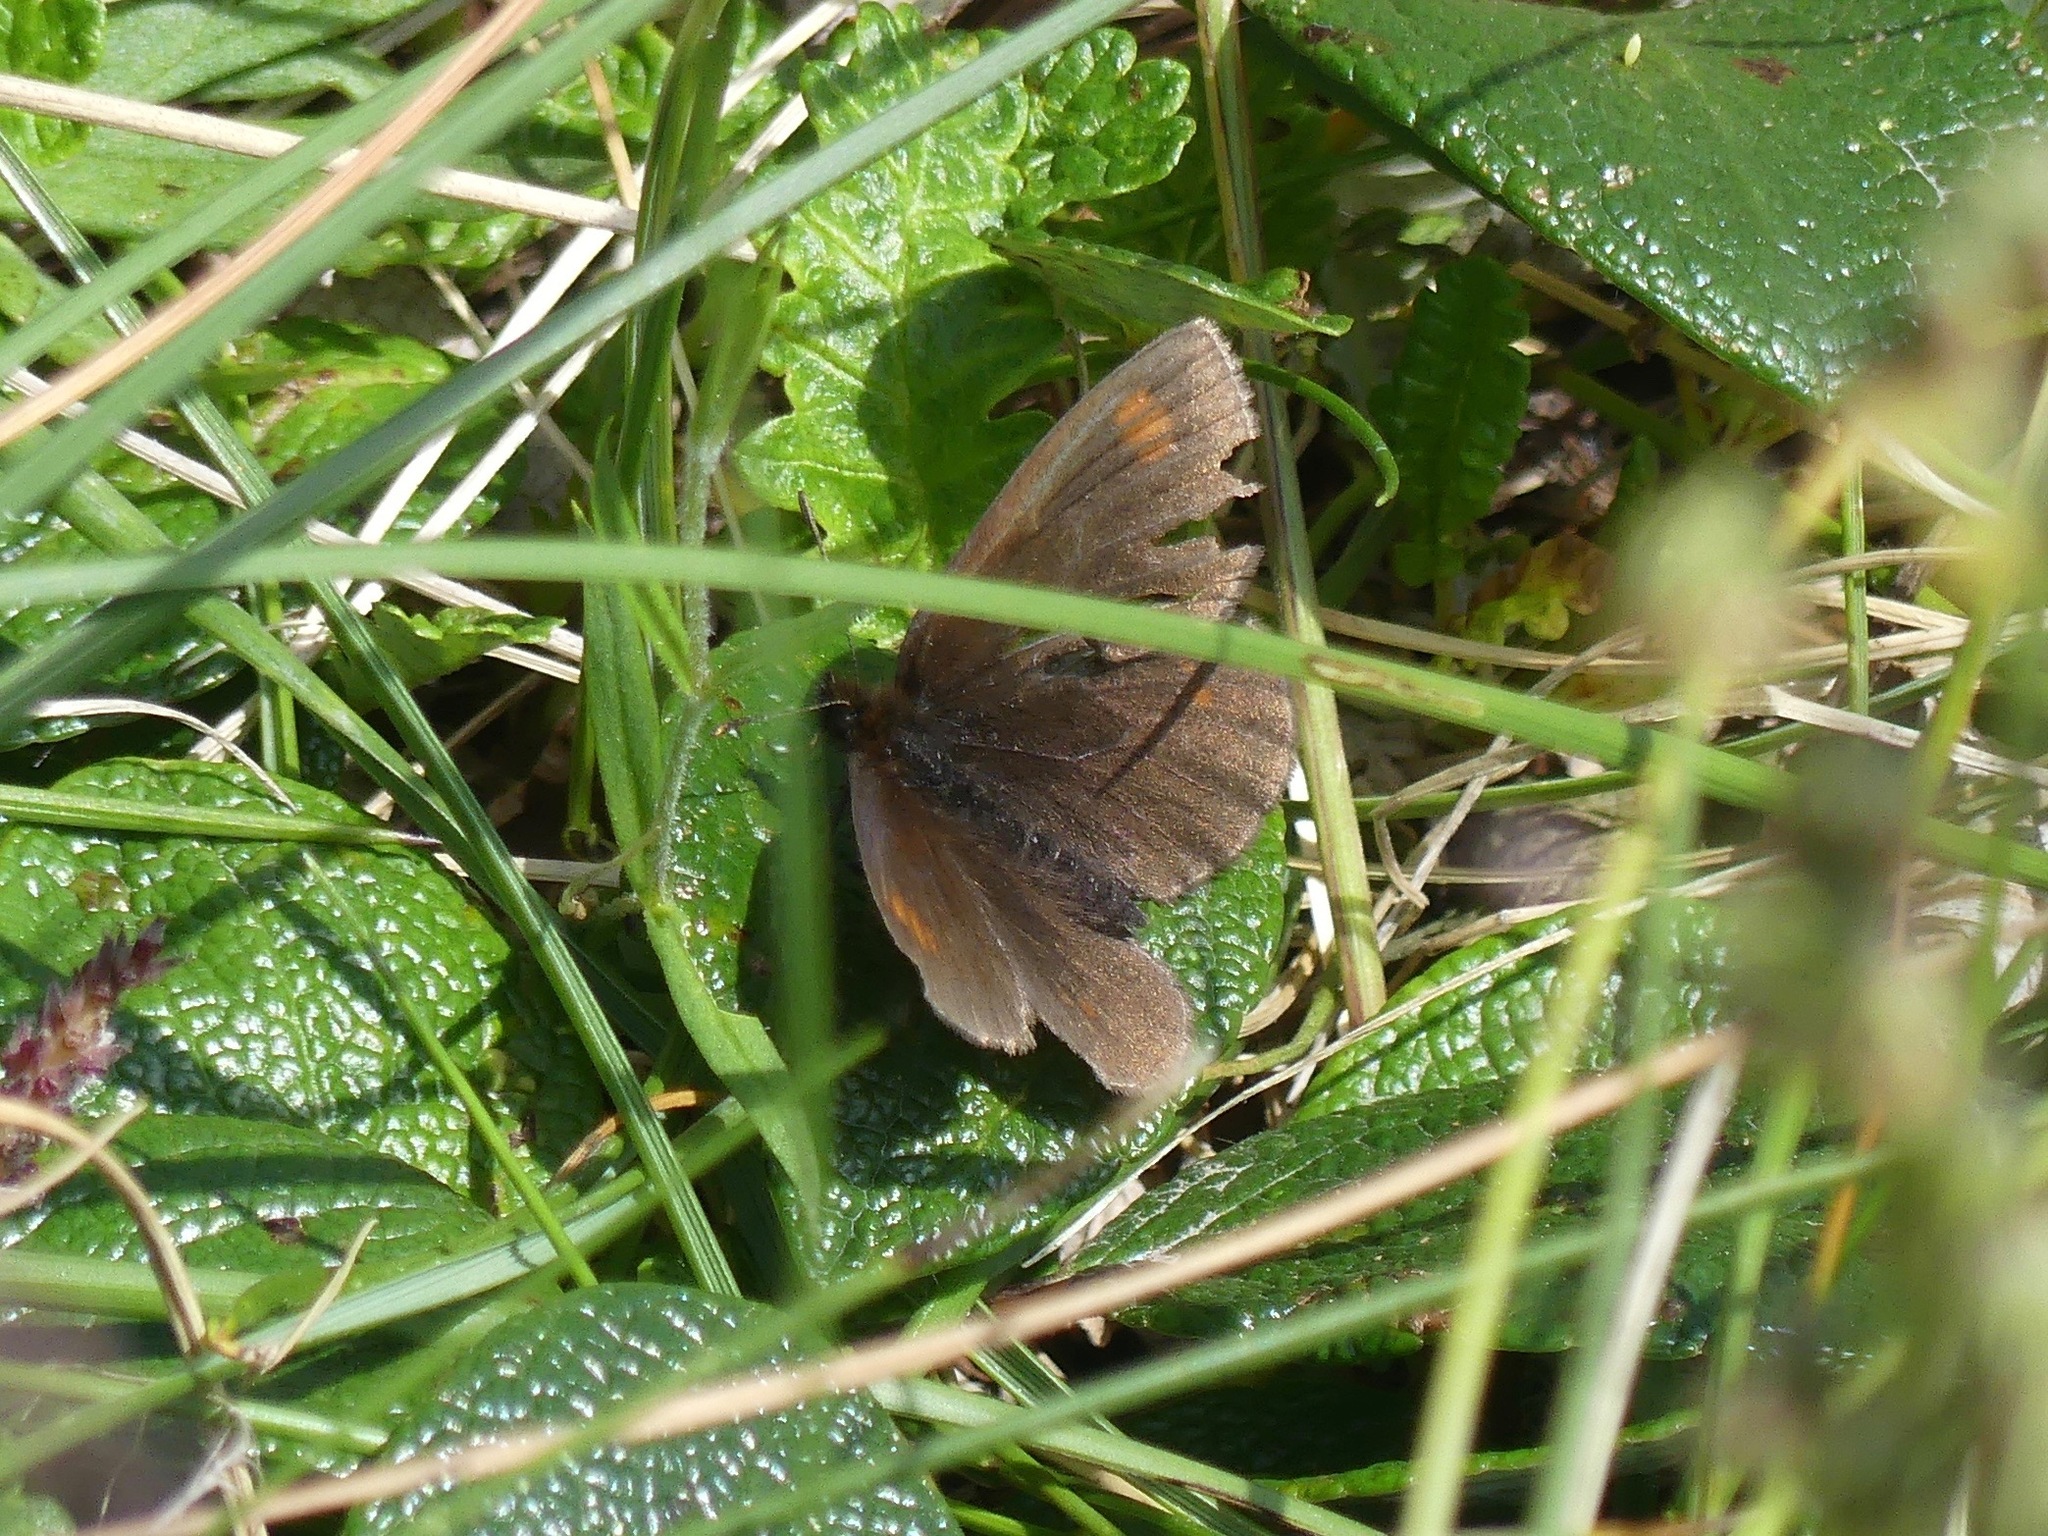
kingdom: Animalia
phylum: Arthropoda
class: Insecta
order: Lepidoptera
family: Nymphalidae
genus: Erebia
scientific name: Erebia pawloskii
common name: Theano alpine
